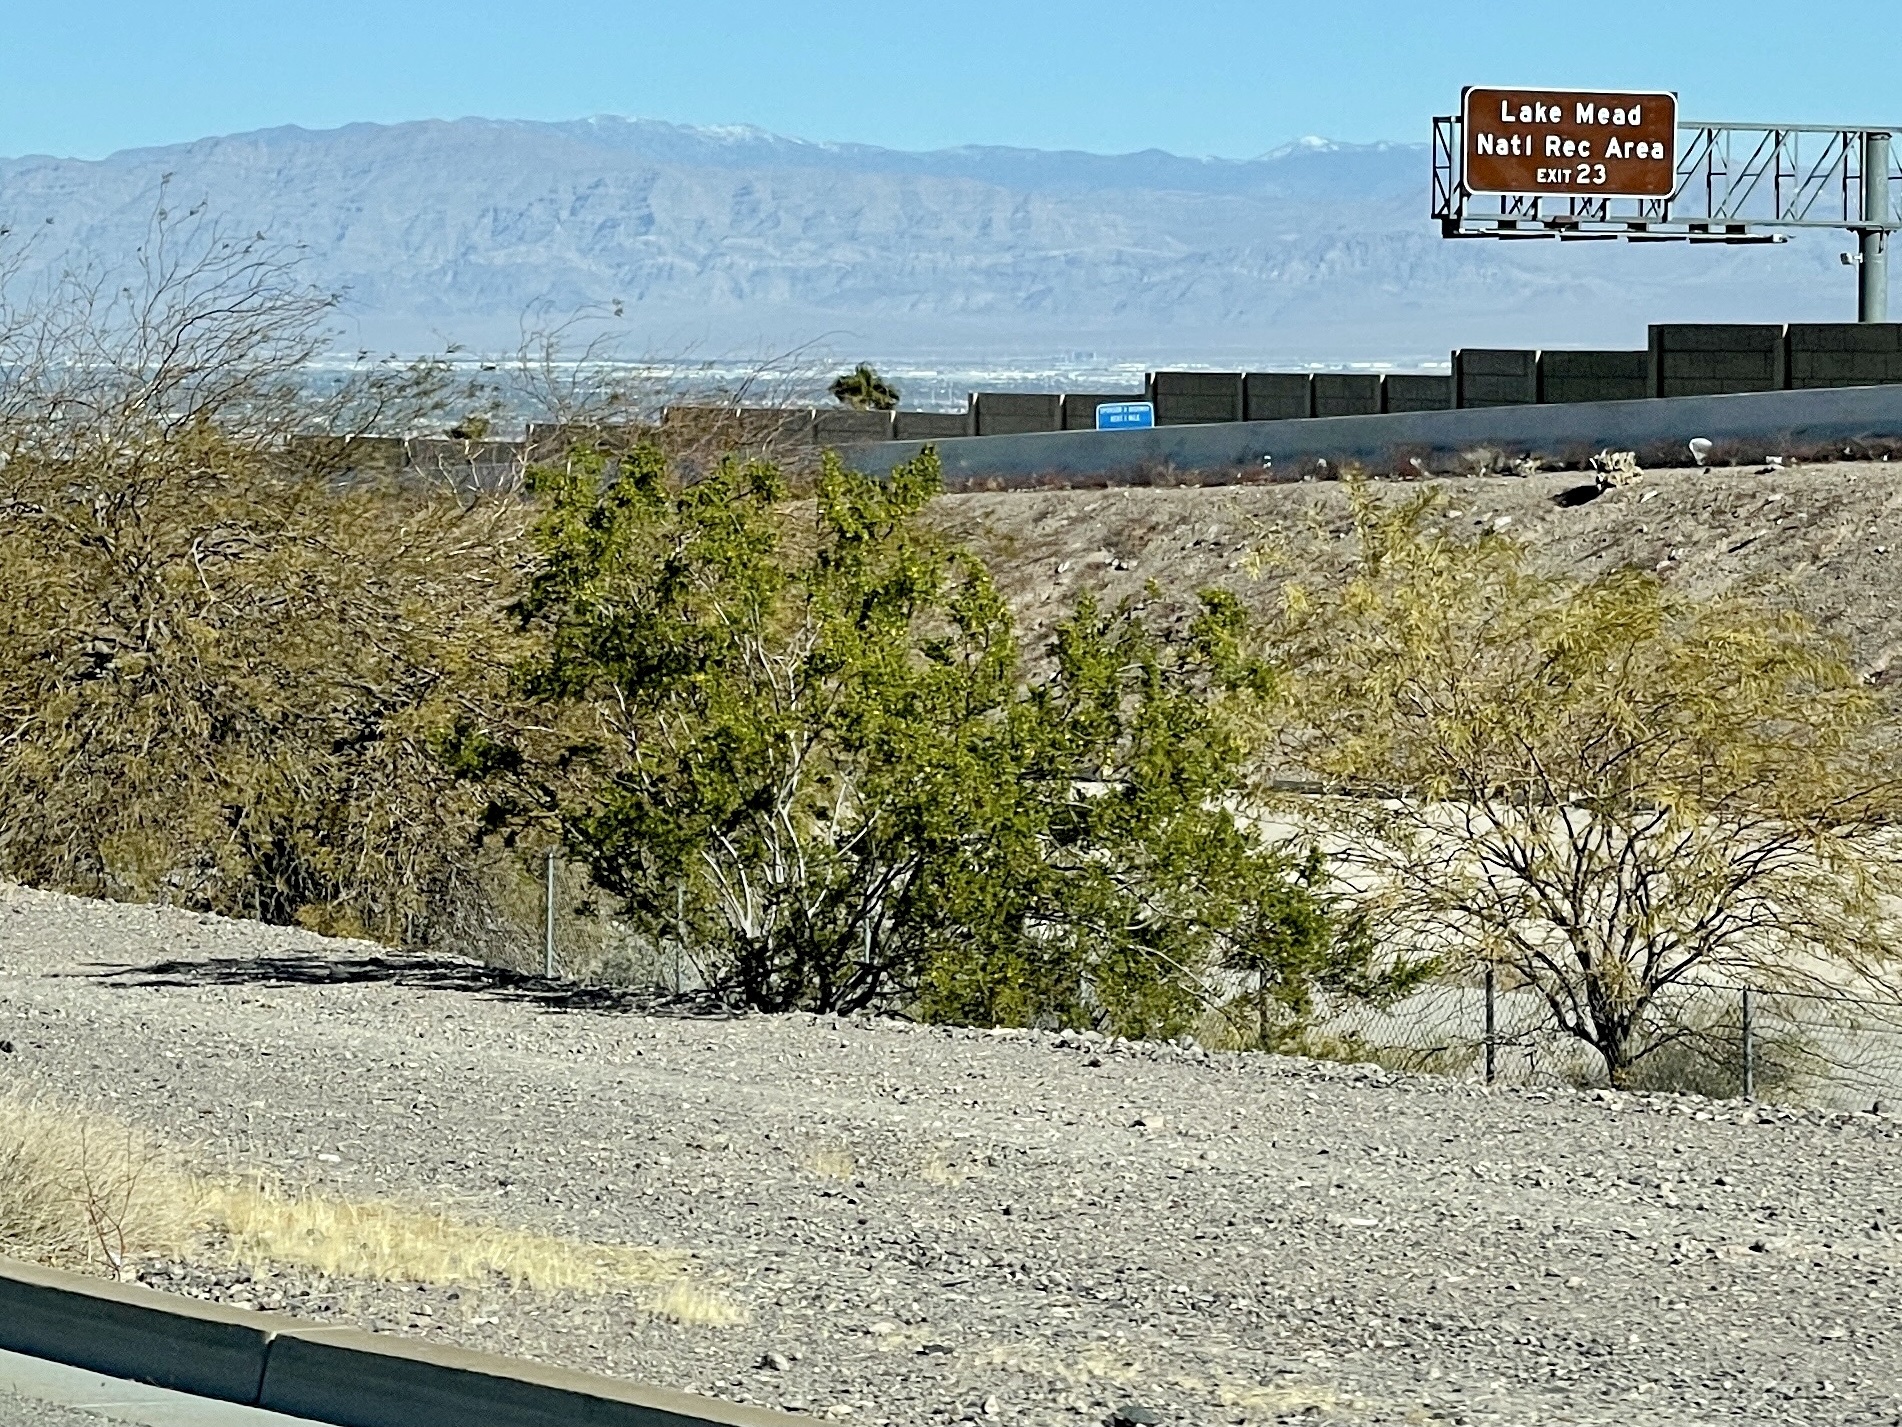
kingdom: Plantae
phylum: Tracheophyta
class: Magnoliopsida
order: Zygophyllales
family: Zygophyllaceae
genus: Larrea
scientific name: Larrea tridentata
